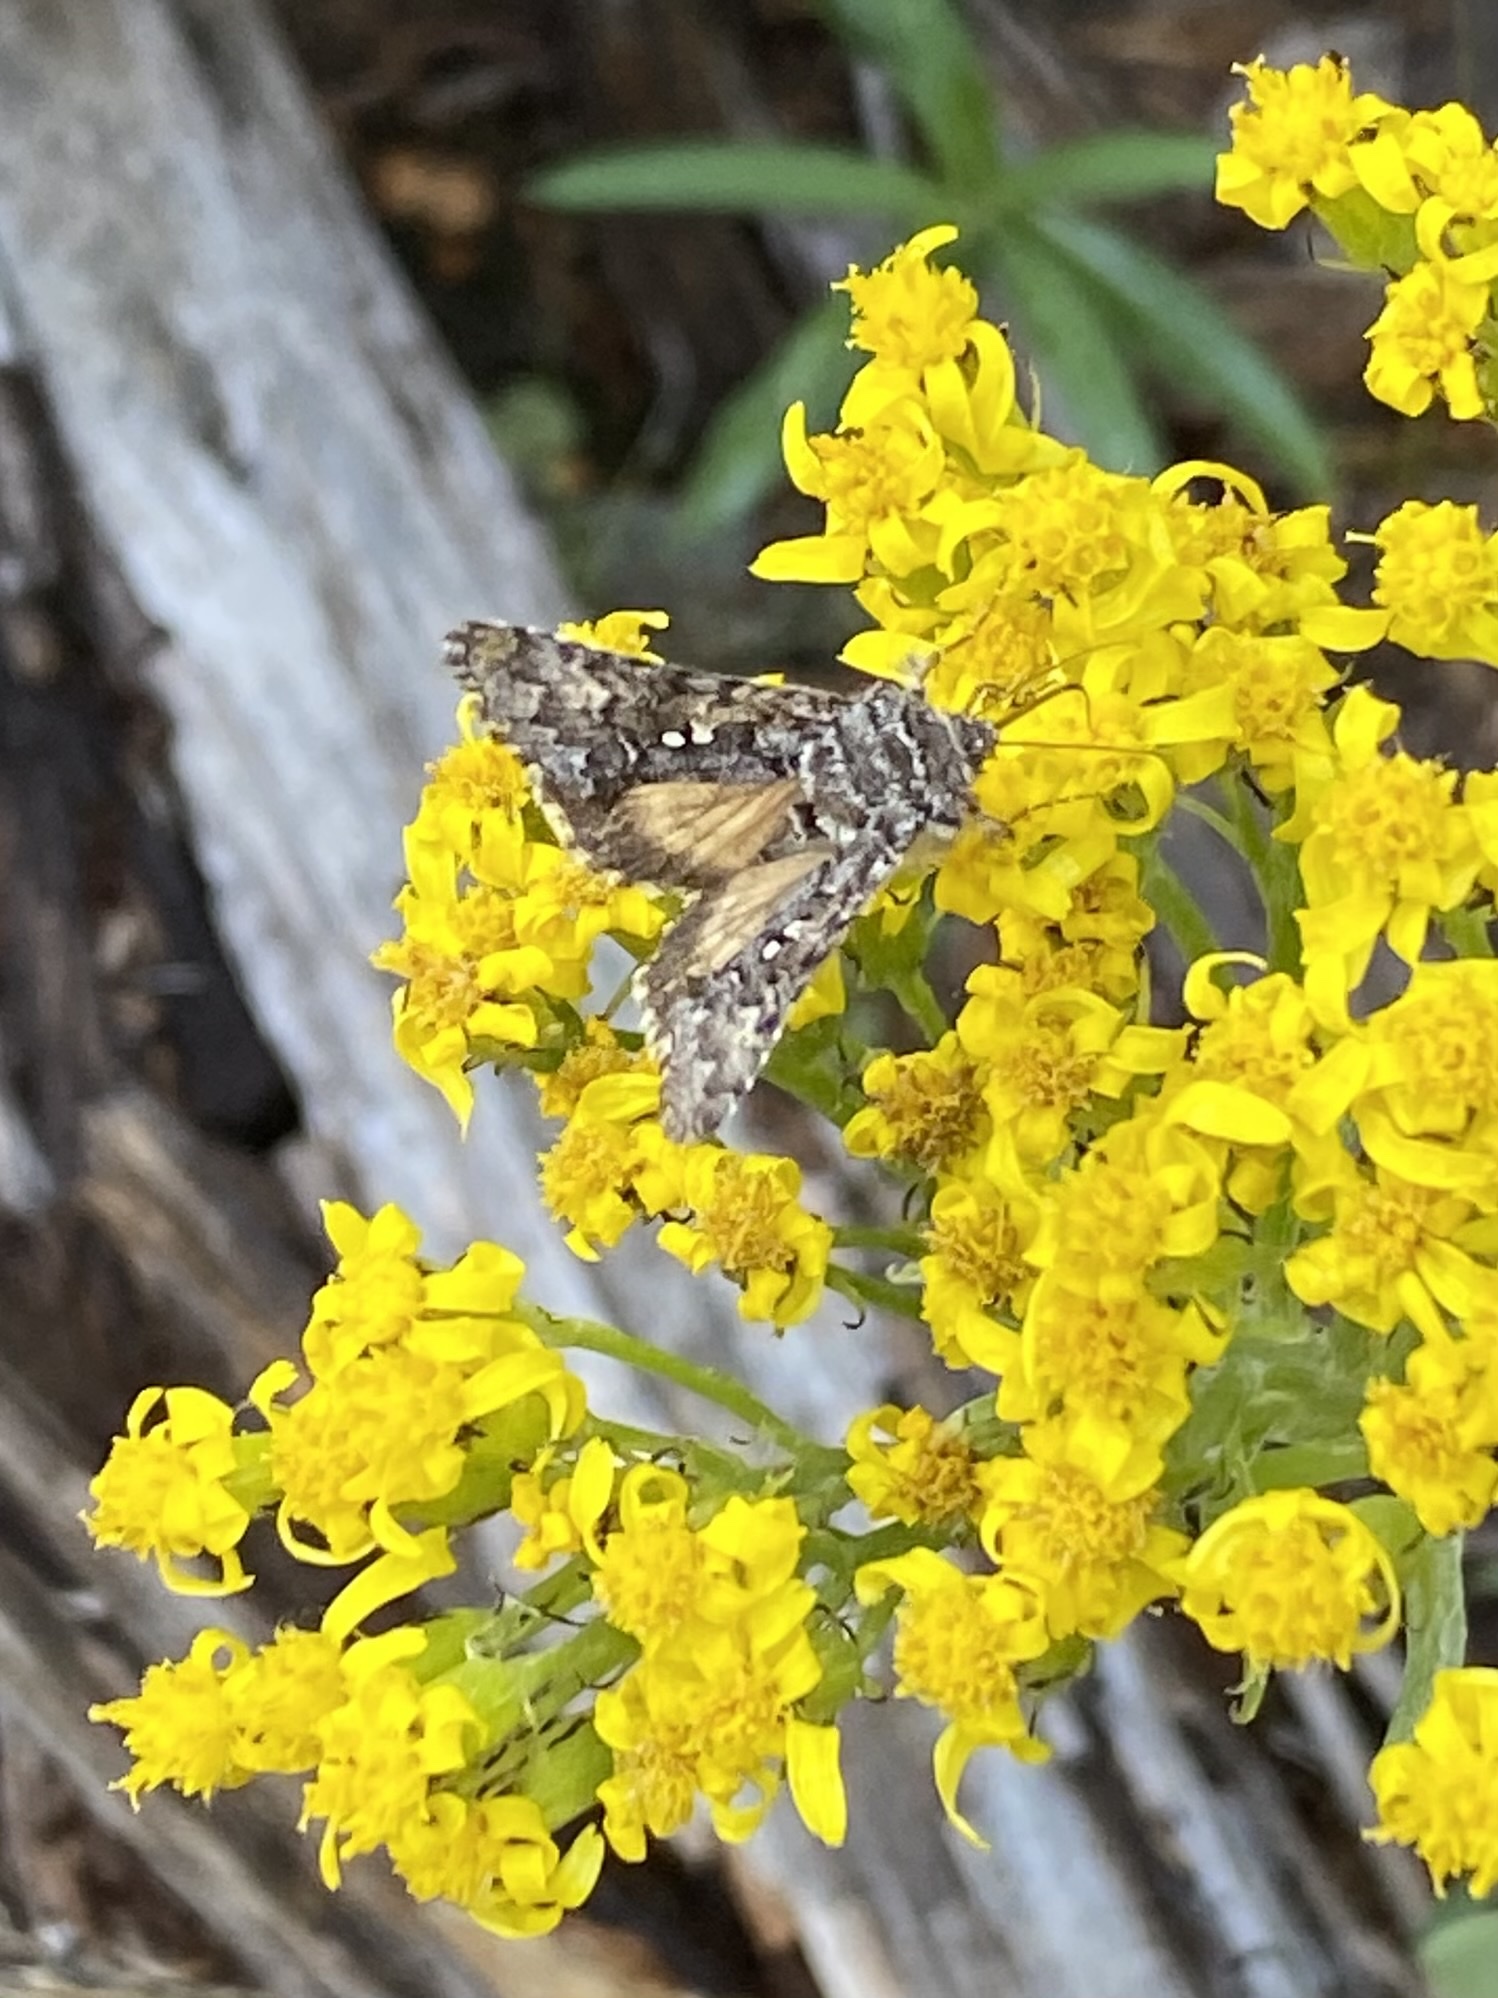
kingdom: Animalia
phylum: Arthropoda
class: Insecta
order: Lepidoptera
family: Noctuidae
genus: Syngrapha
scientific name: Syngrapha angulidens
